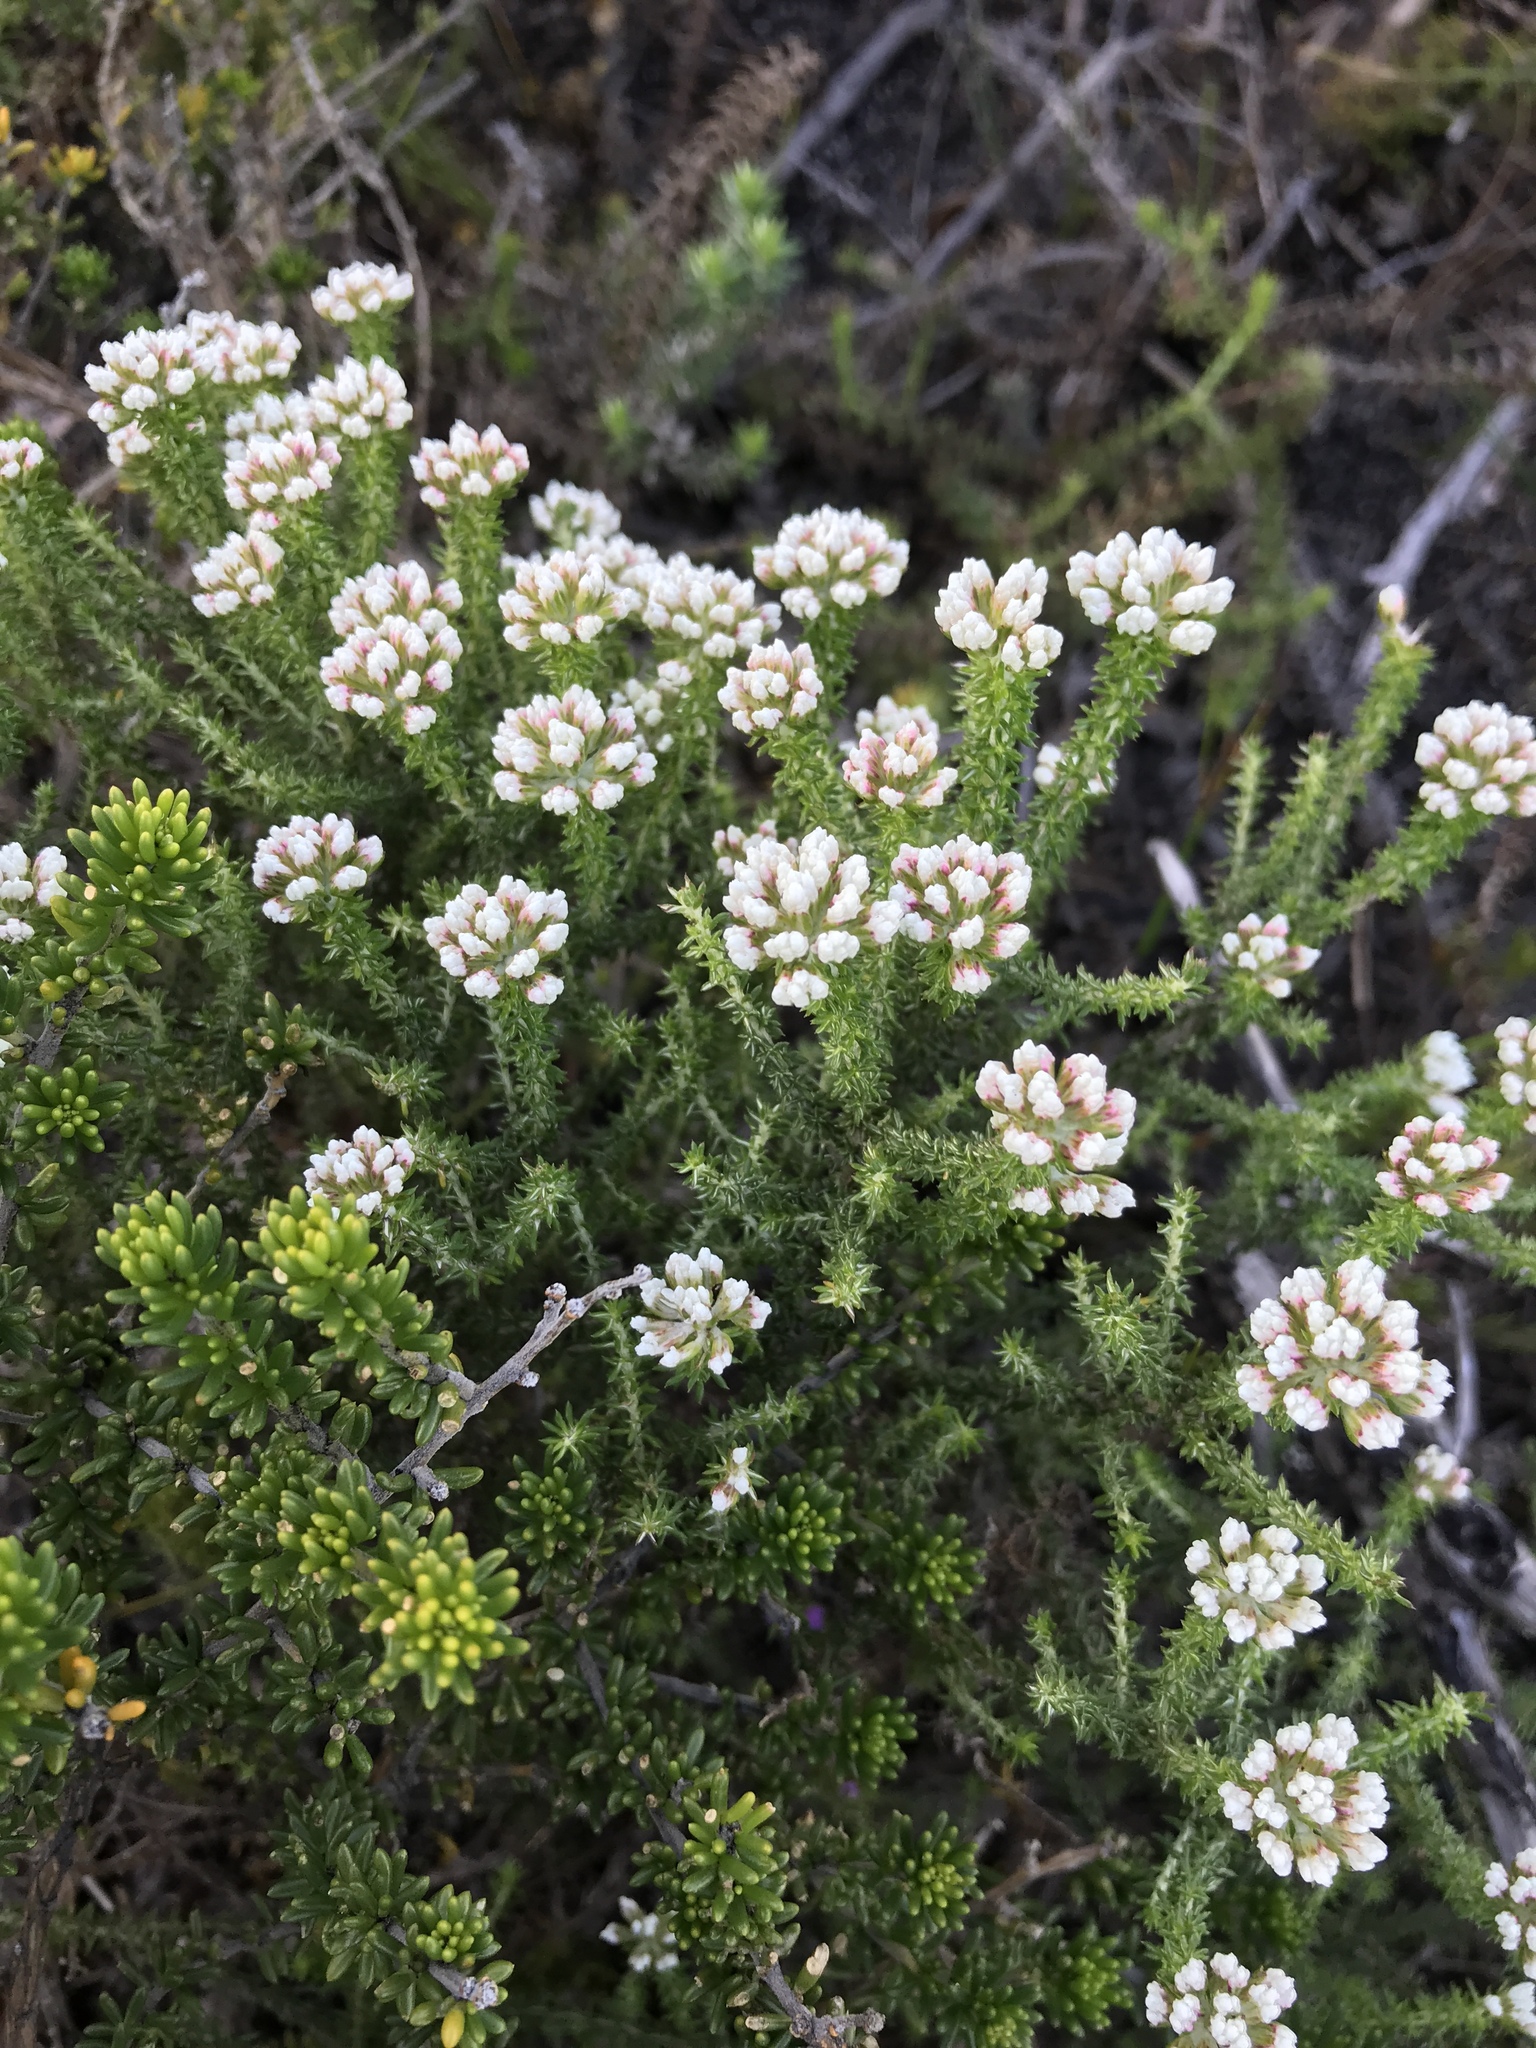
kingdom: Plantae
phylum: Tracheophyta
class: Magnoliopsida
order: Asterales
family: Asteraceae
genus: Metalasia
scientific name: Metalasia brevifolia
